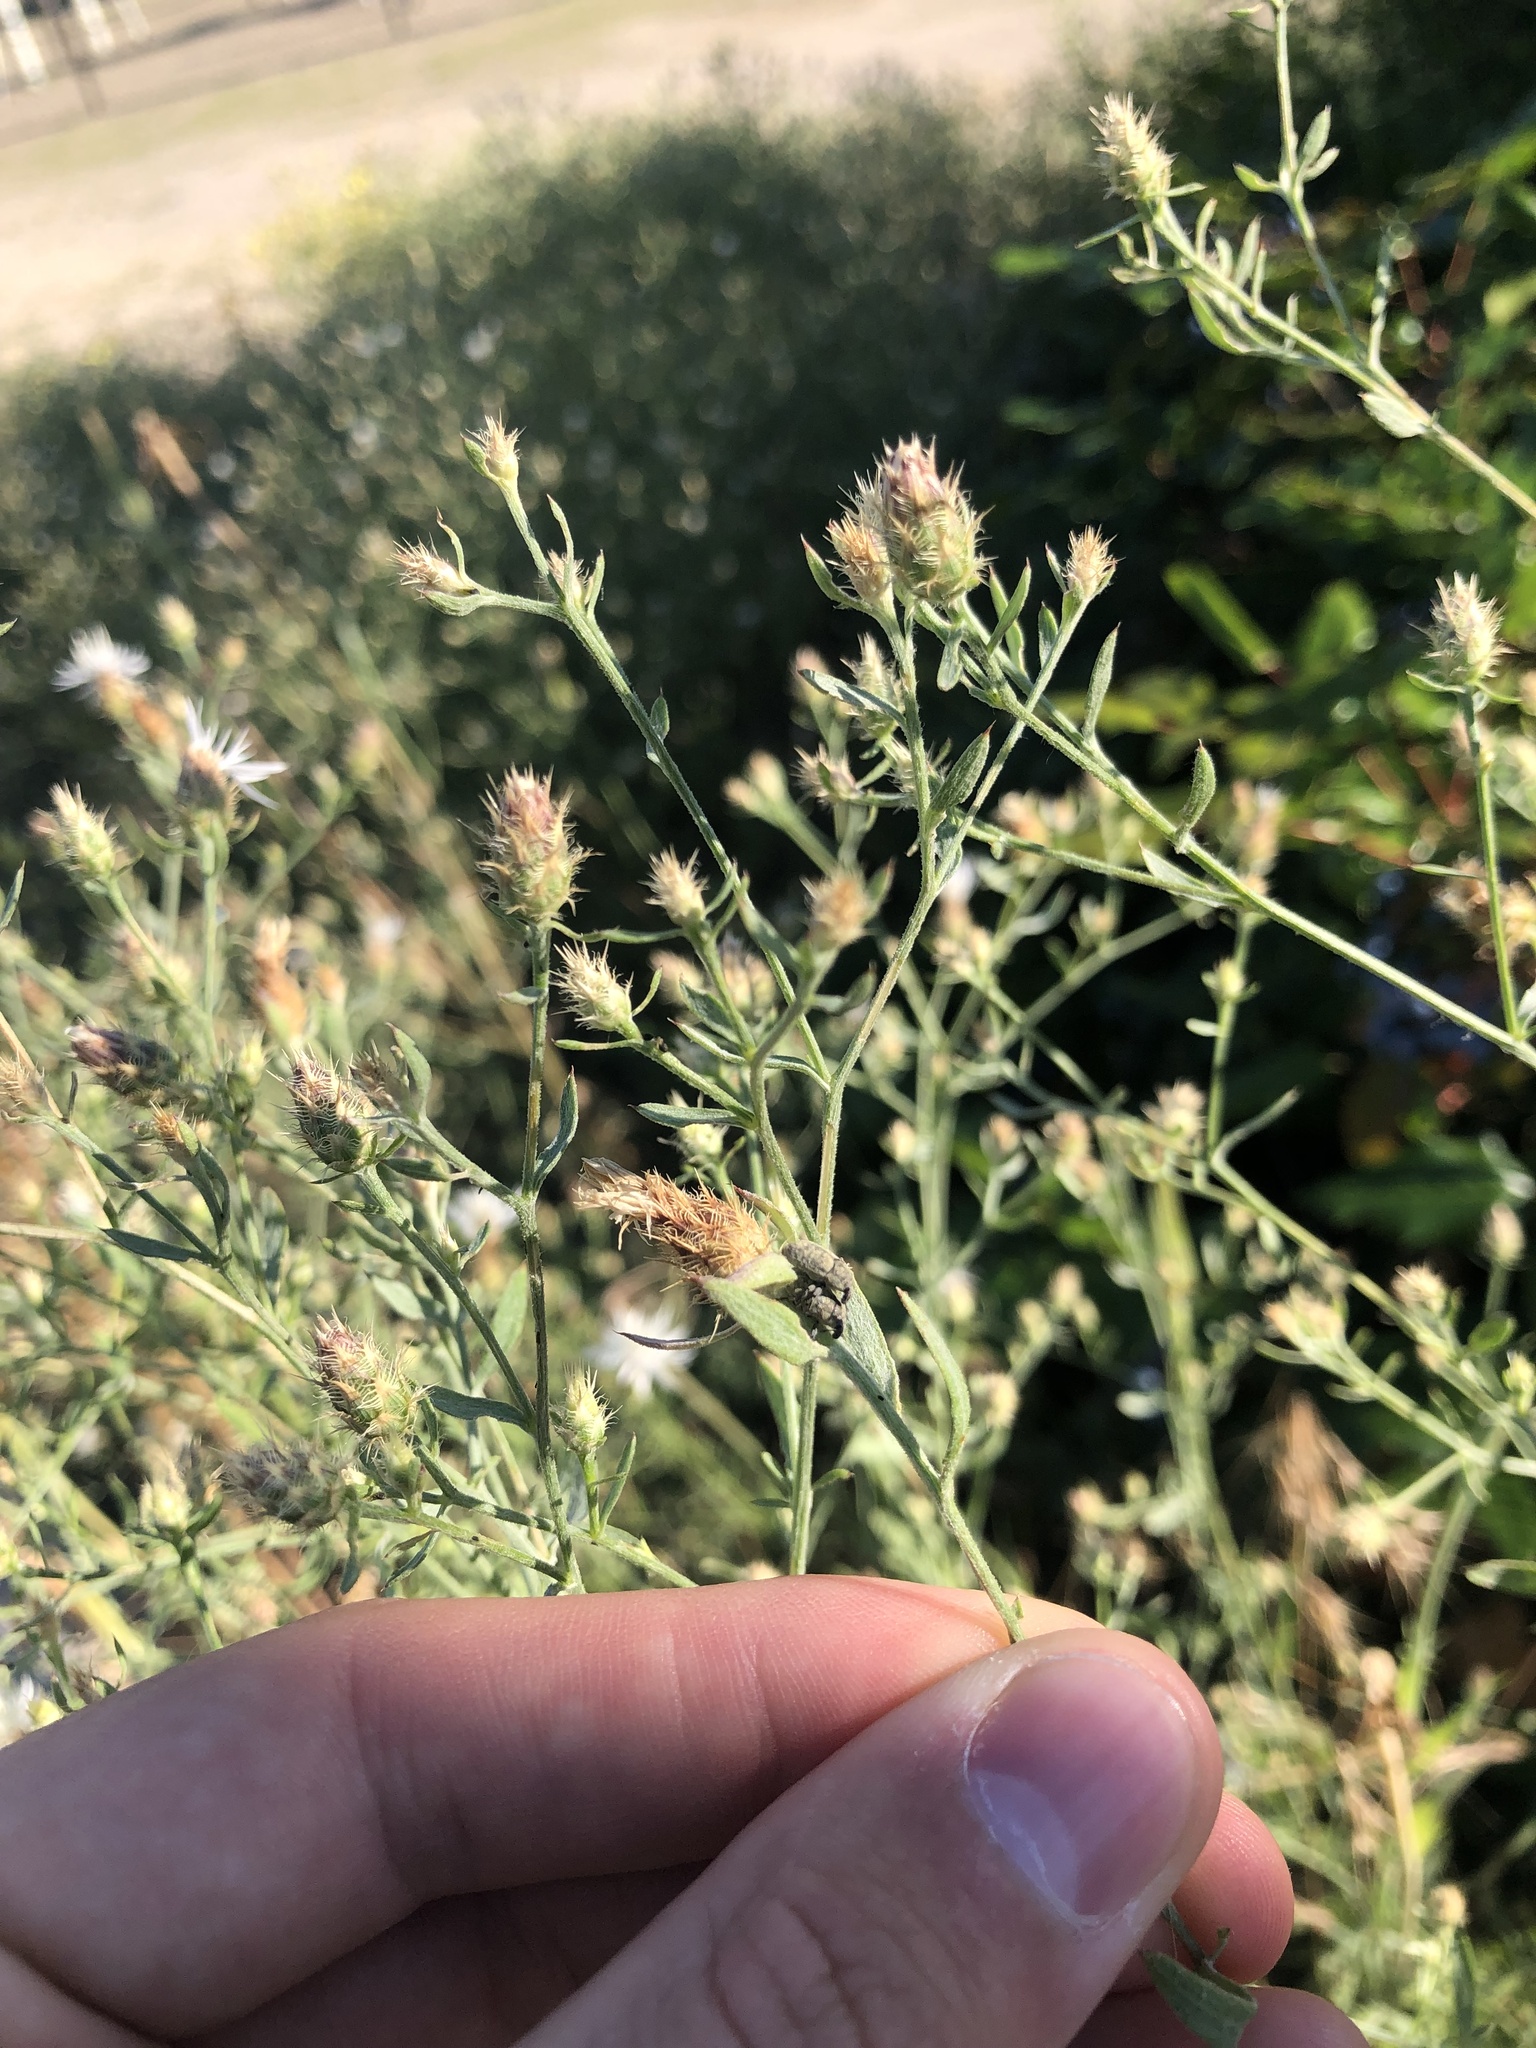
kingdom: Plantae
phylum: Tracheophyta
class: Magnoliopsida
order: Asterales
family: Asteraceae
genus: Centaurea
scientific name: Centaurea diffusa
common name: Diffuse knapweed
